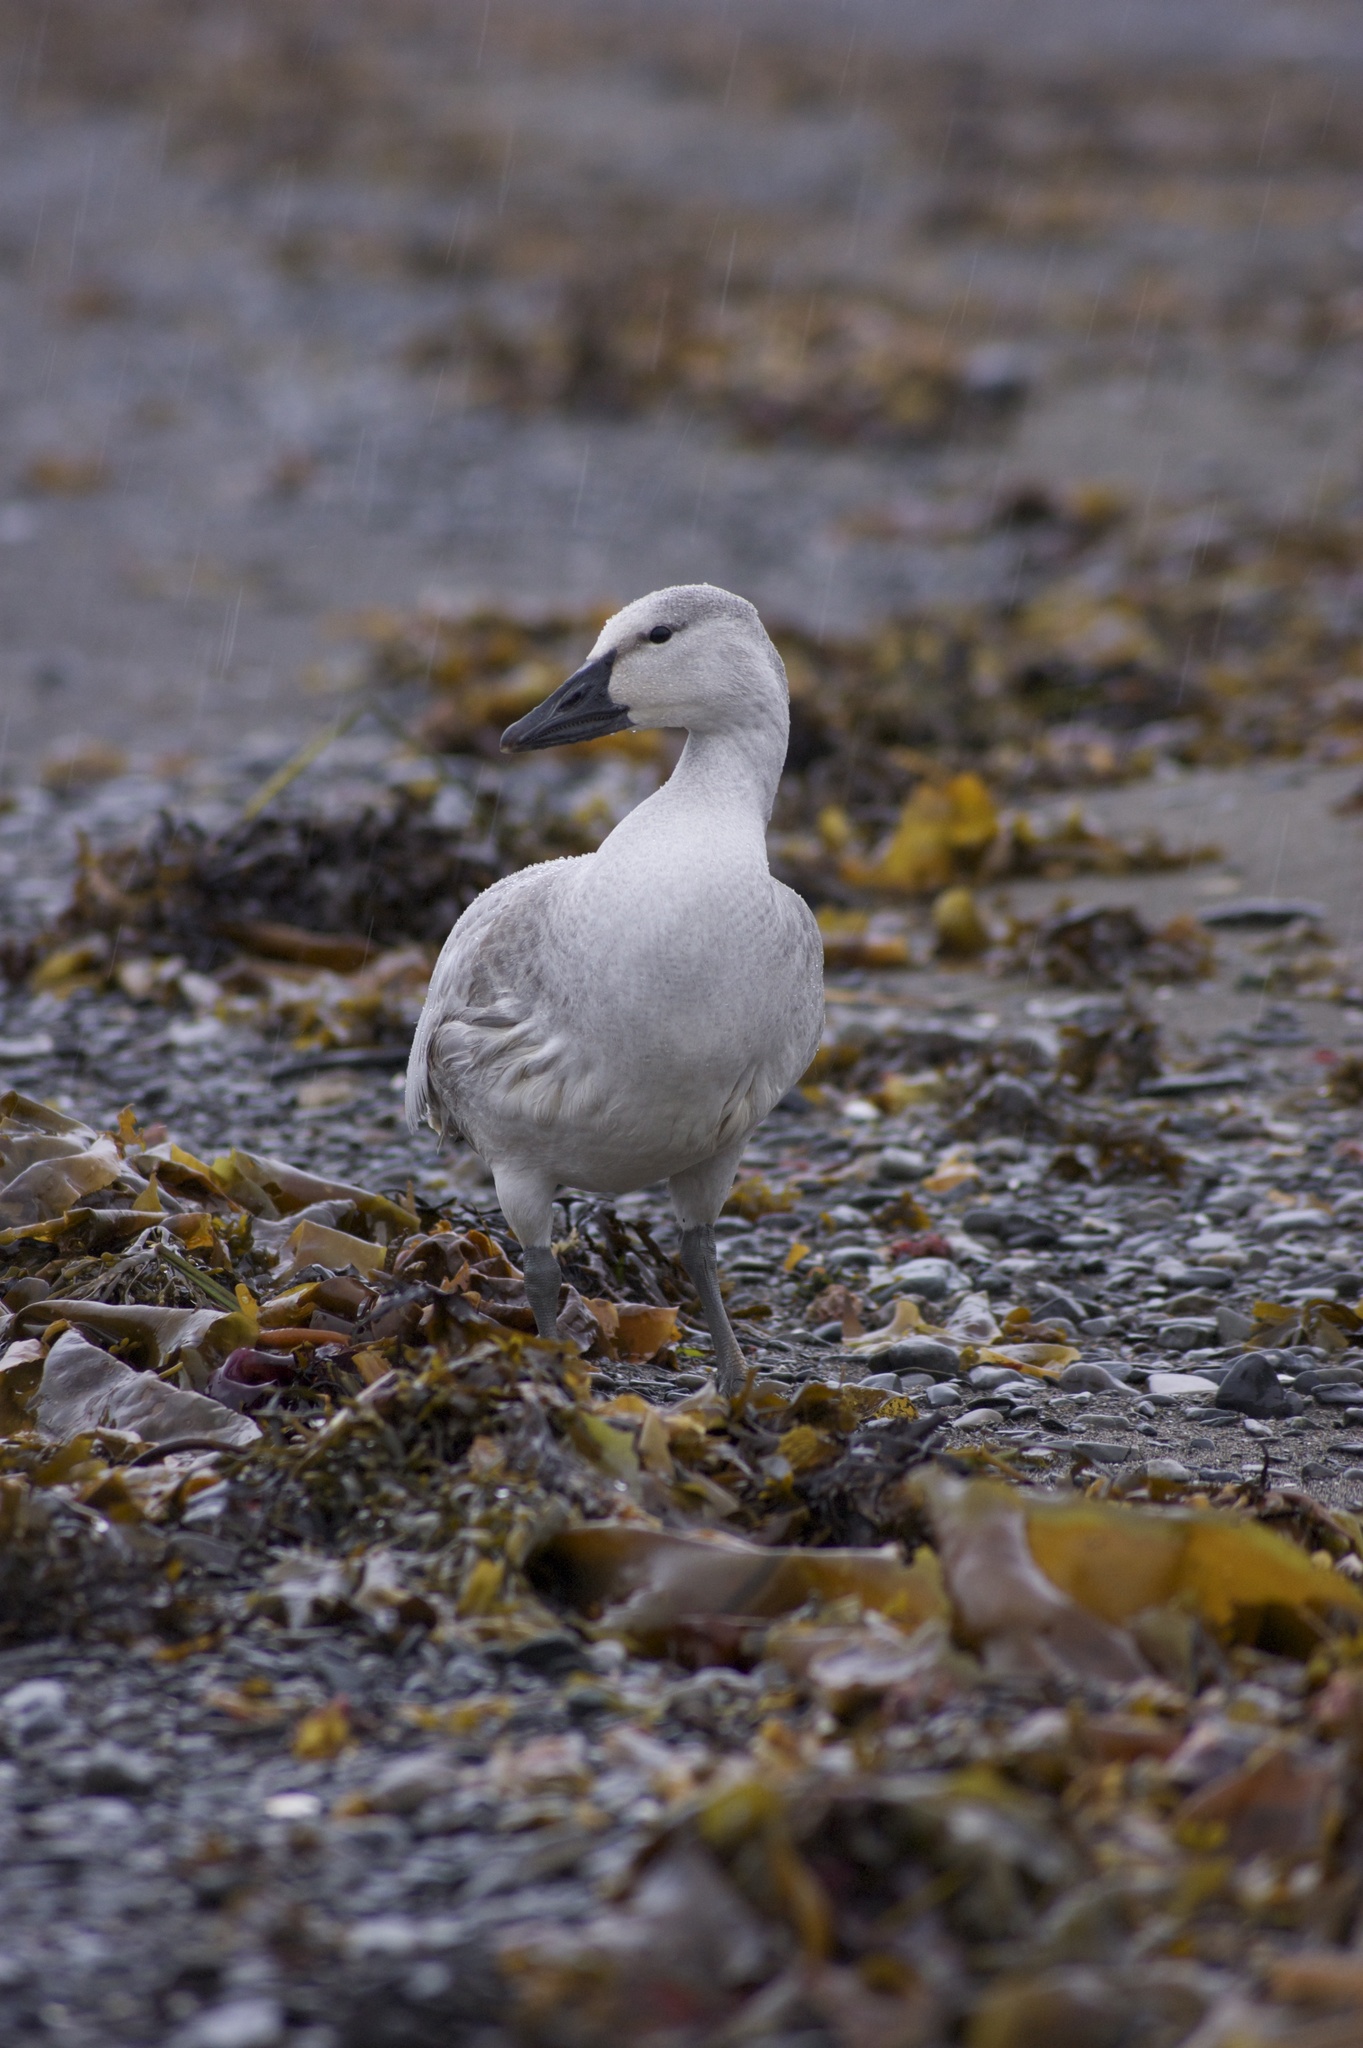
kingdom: Animalia
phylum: Chordata
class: Aves
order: Anseriformes
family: Anatidae
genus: Anser
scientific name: Anser caerulescens
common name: Snow goose
